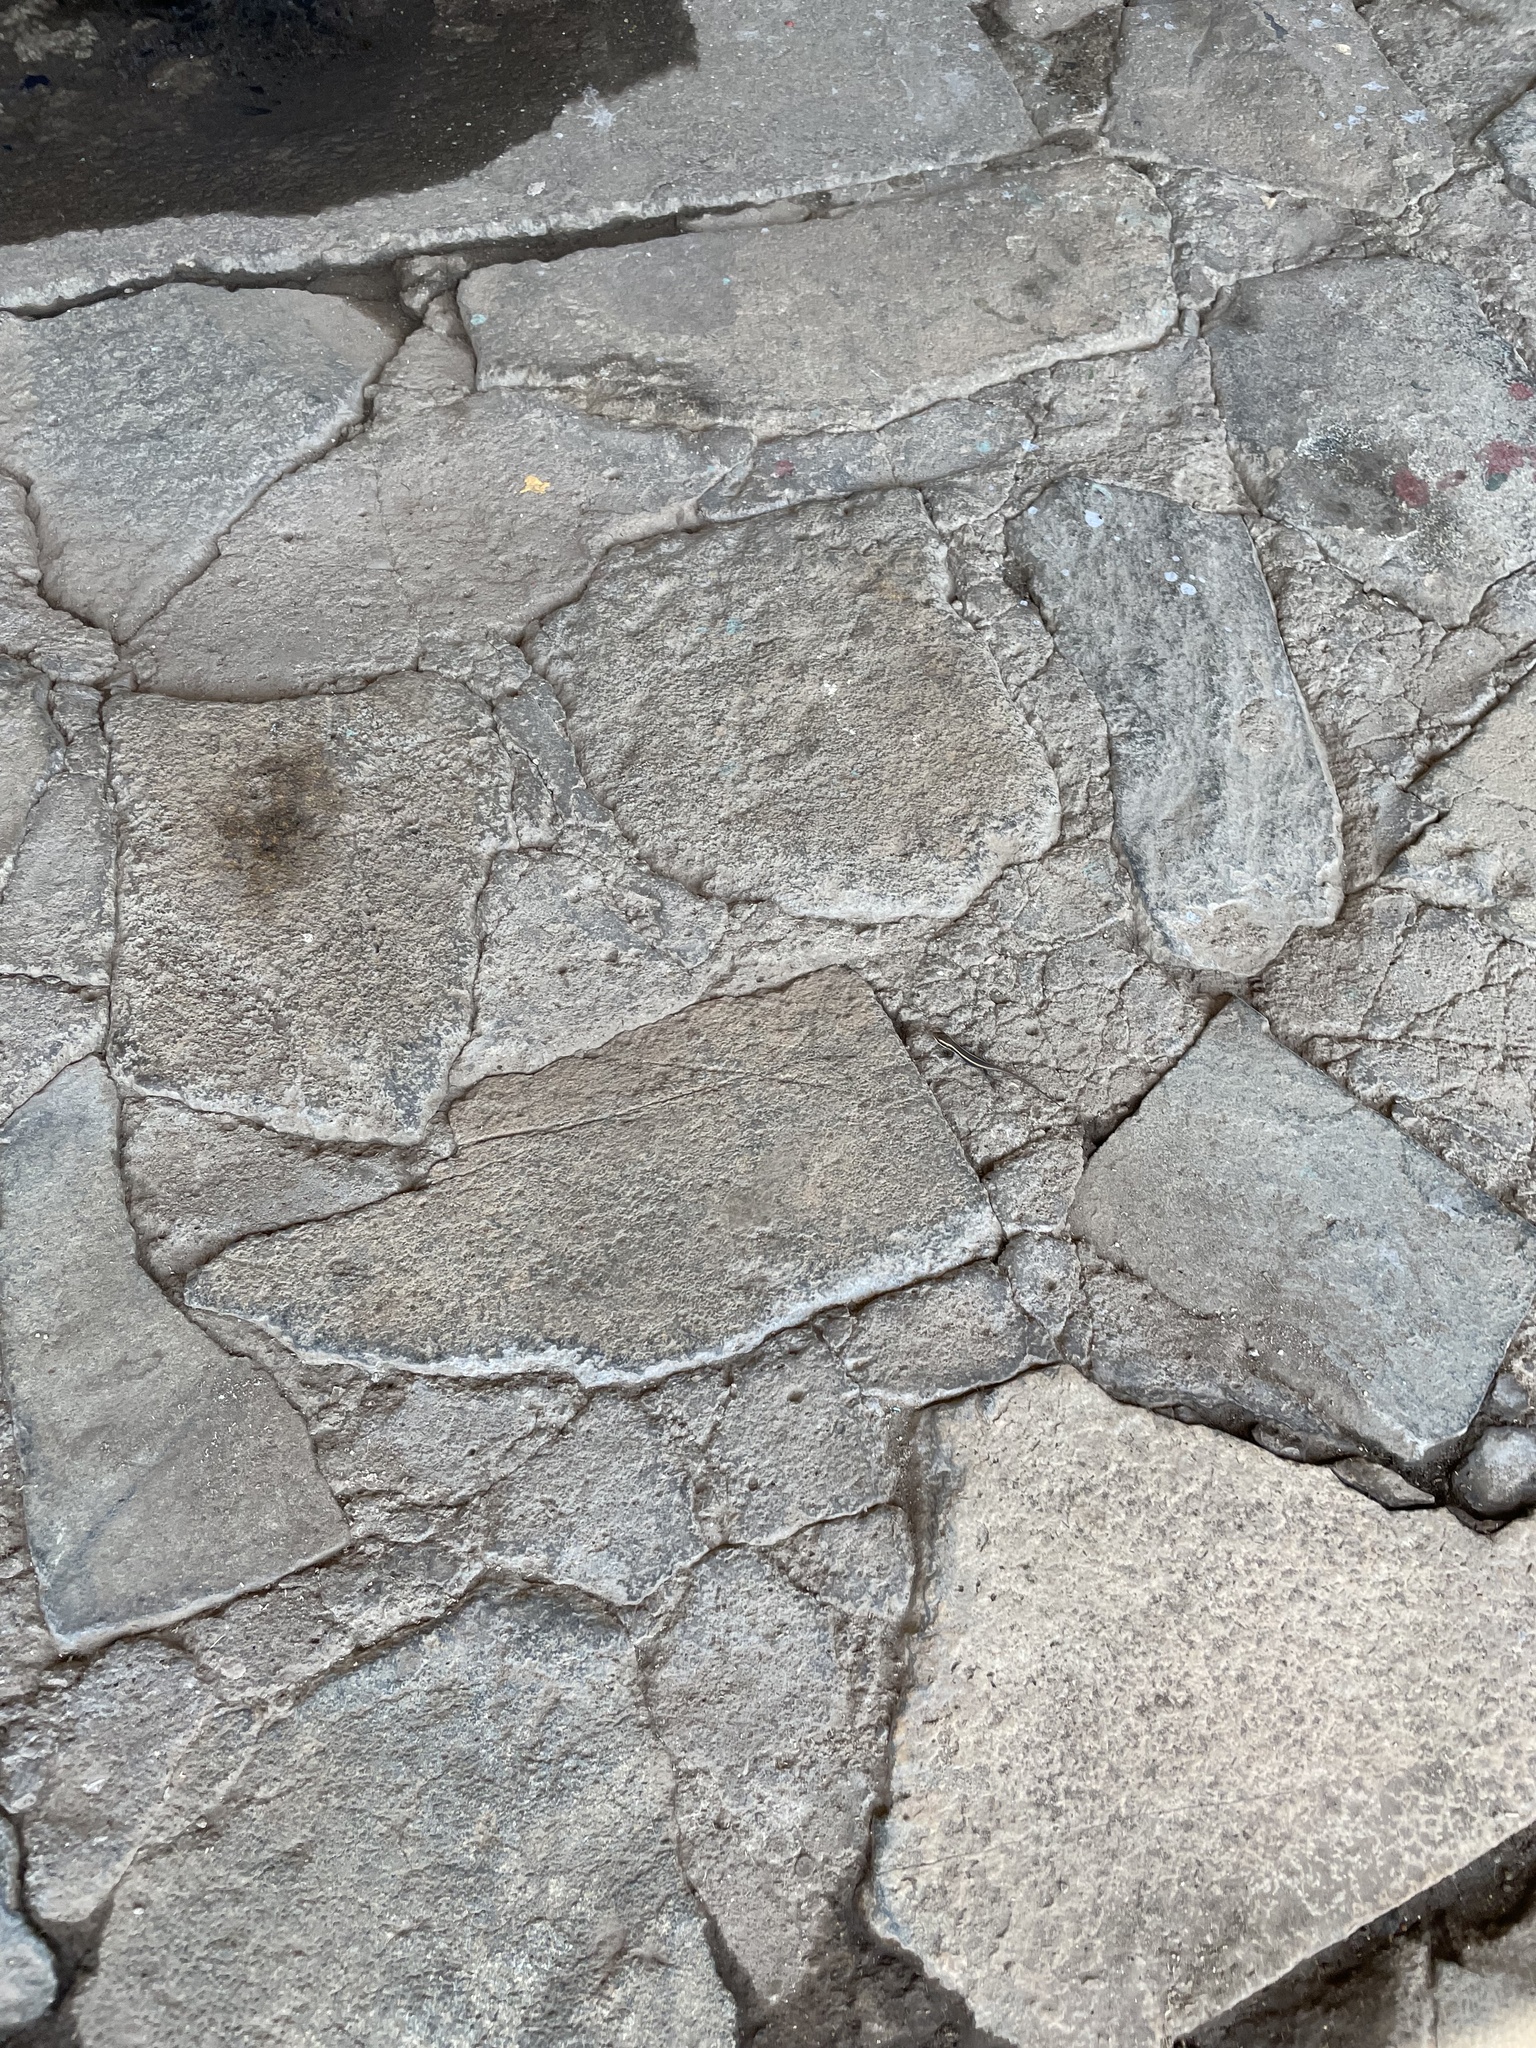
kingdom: Animalia
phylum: Chordata
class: Squamata
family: Scincidae
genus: Trachylepis
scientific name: Trachylepis striata
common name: African striped mabuya
